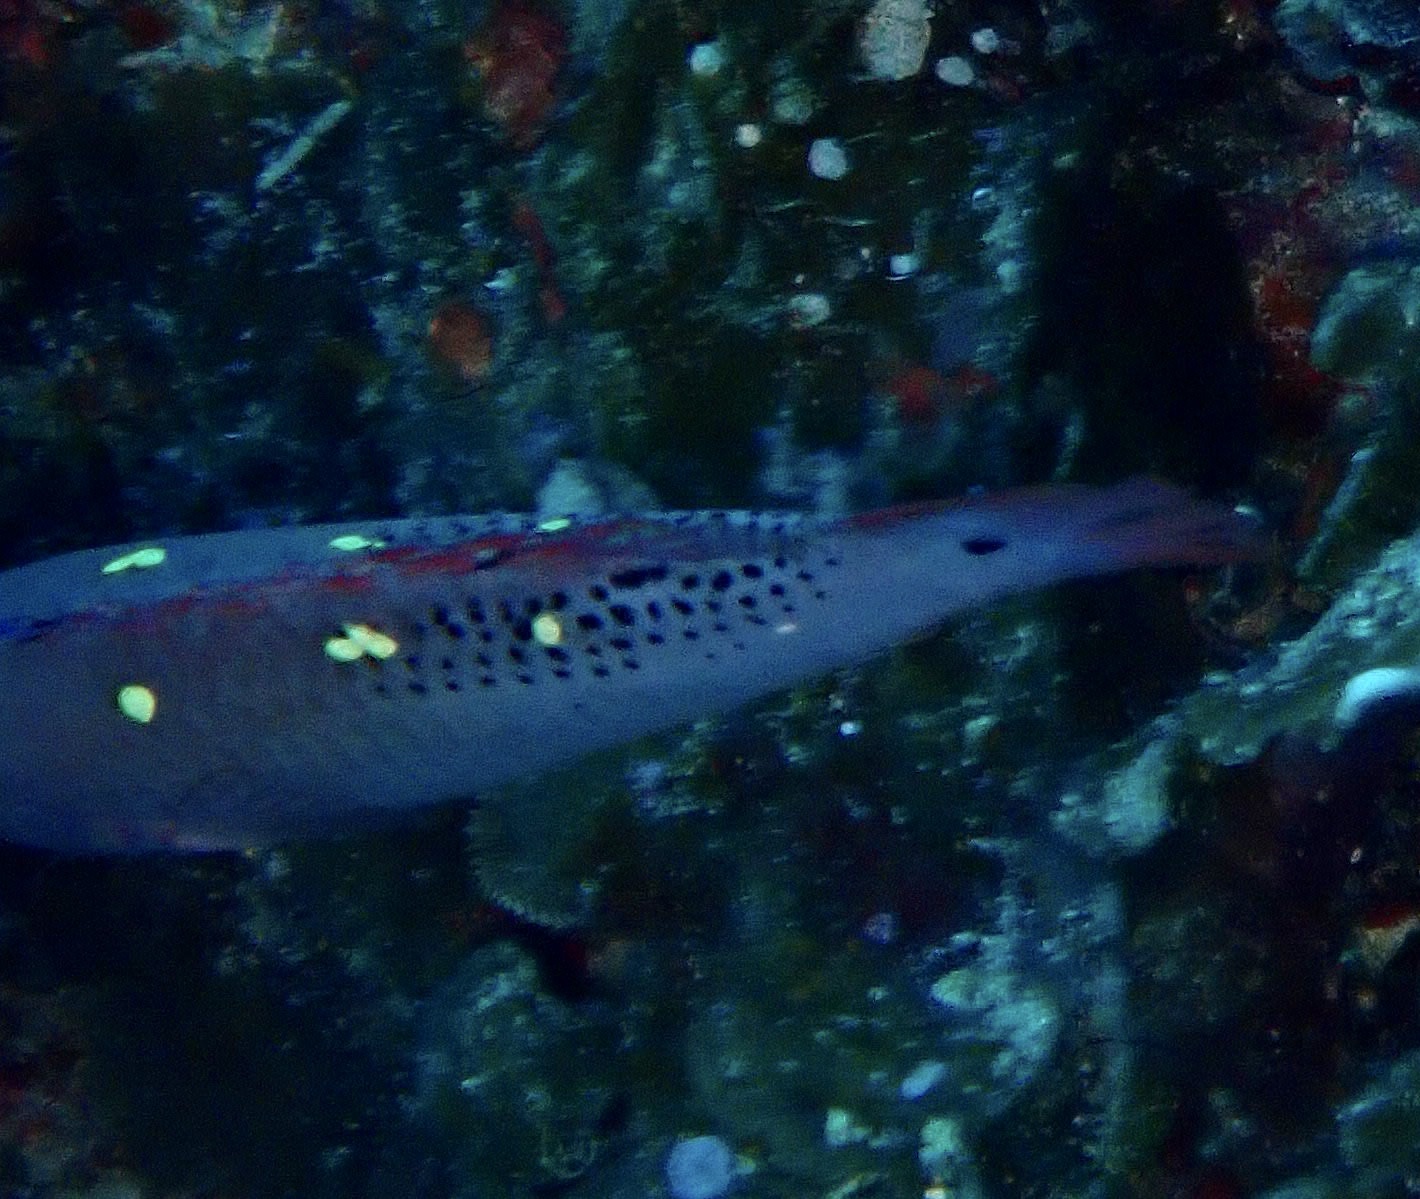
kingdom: Animalia
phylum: Chordata
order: Perciformes
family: Labridae
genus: Bodianus
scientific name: Bodianus dictynna
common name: Diana's hogfish
